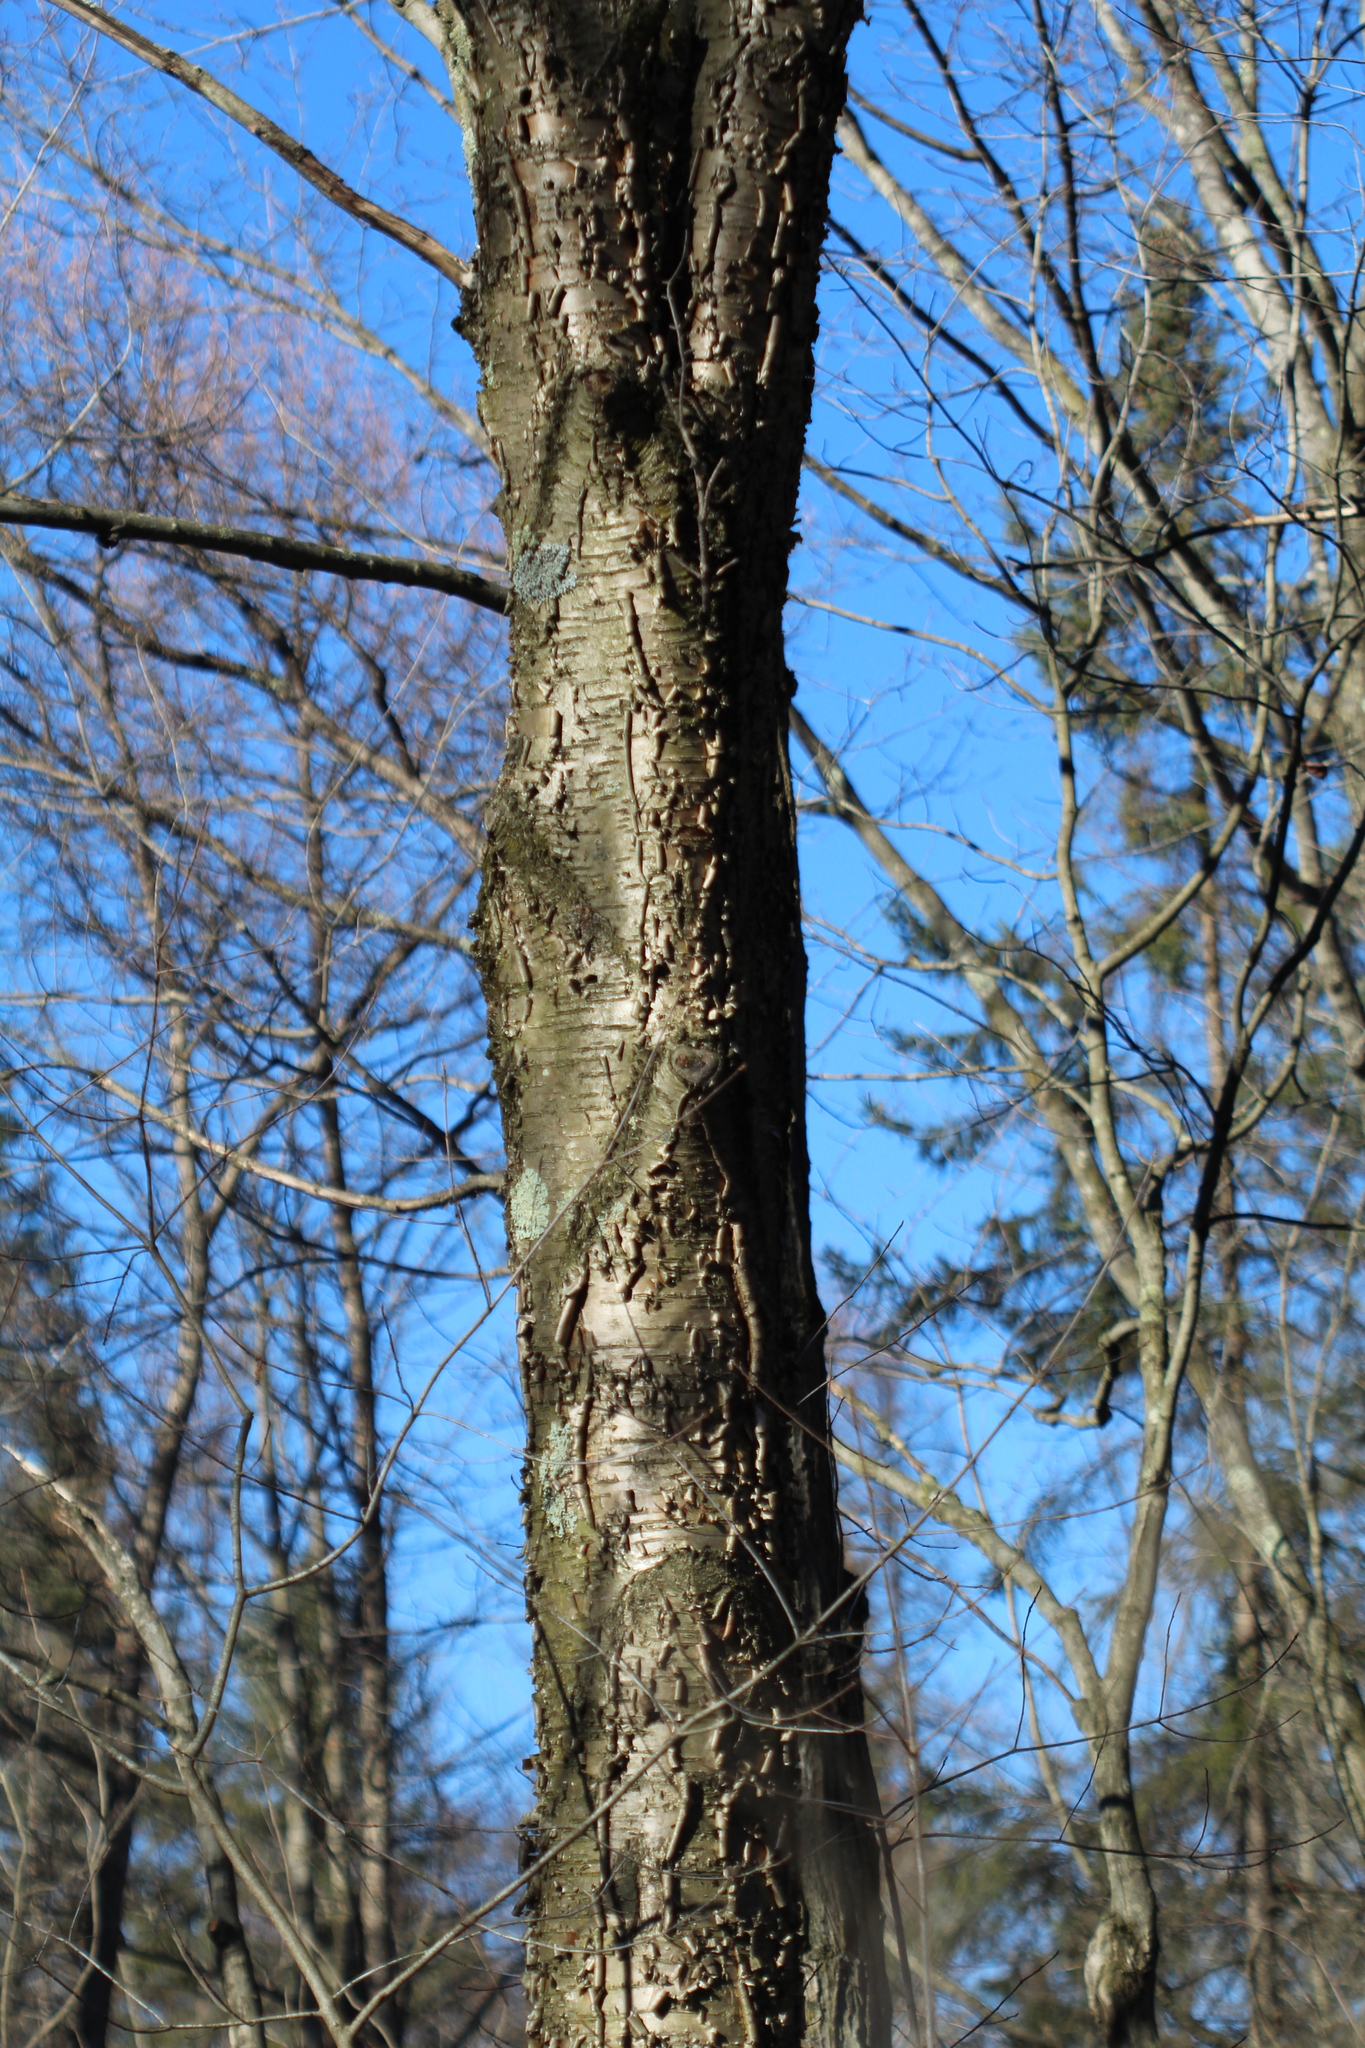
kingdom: Plantae
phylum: Tracheophyta
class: Magnoliopsida
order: Fagales
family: Betulaceae
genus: Betula
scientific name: Betula alleghaniensis
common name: Yellow birch
